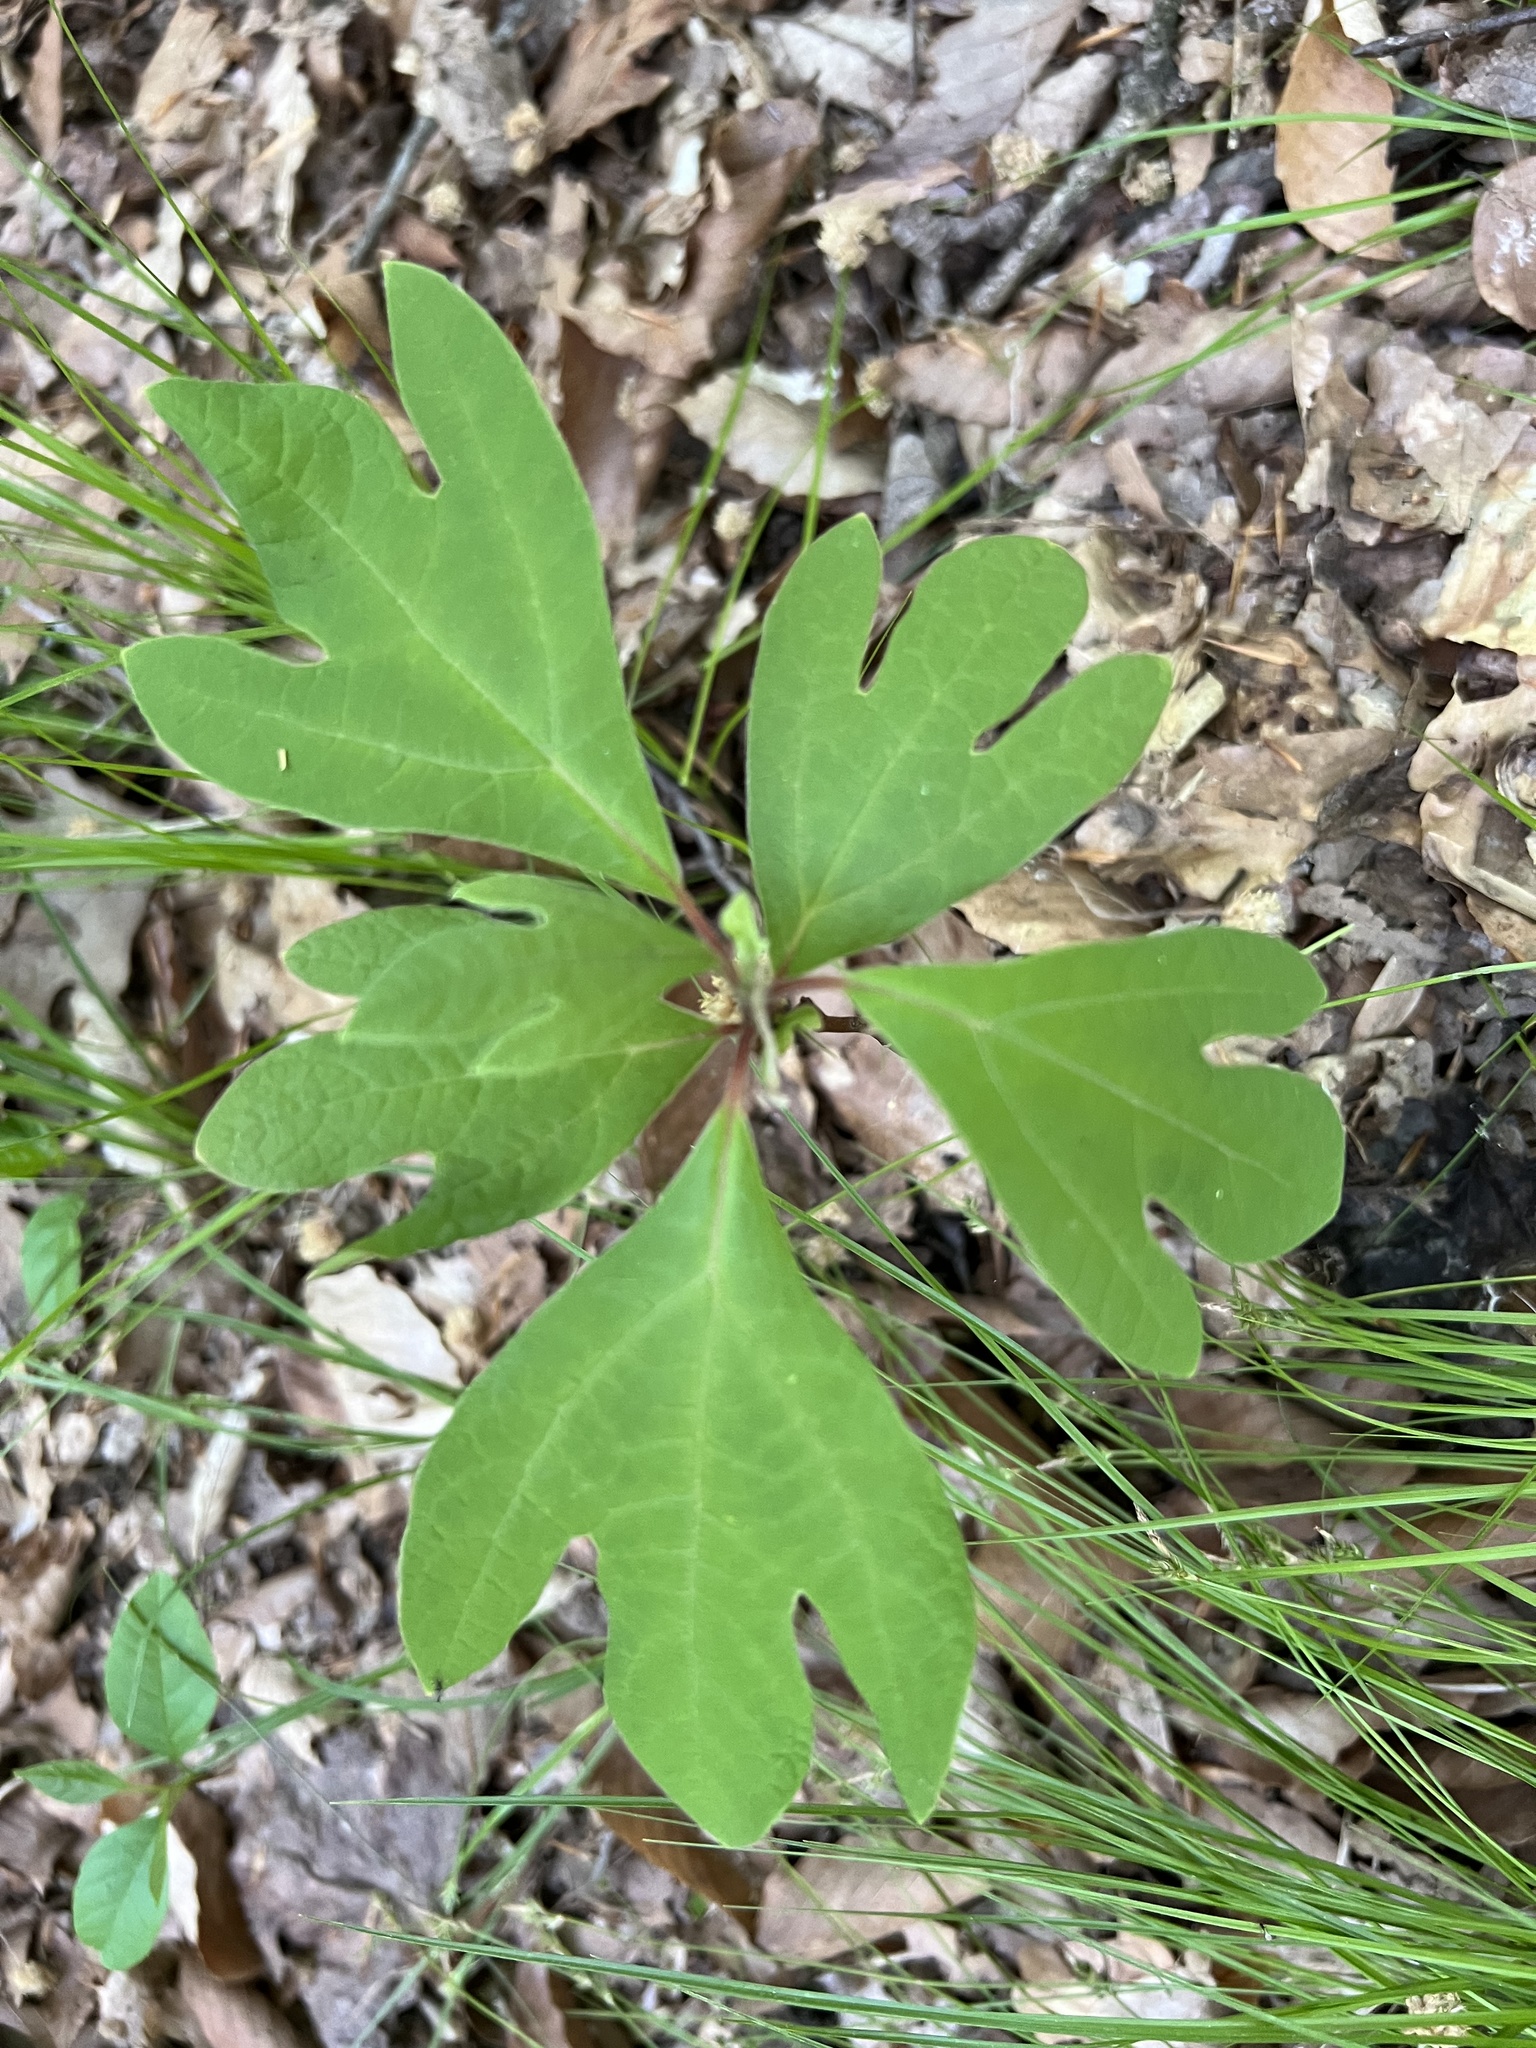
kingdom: Plantae
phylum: Tracheophyta
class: Magnoliopsida
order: Laurales
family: Lauraceae
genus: Sassafras
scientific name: Sassafras albidum
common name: Sassafras
